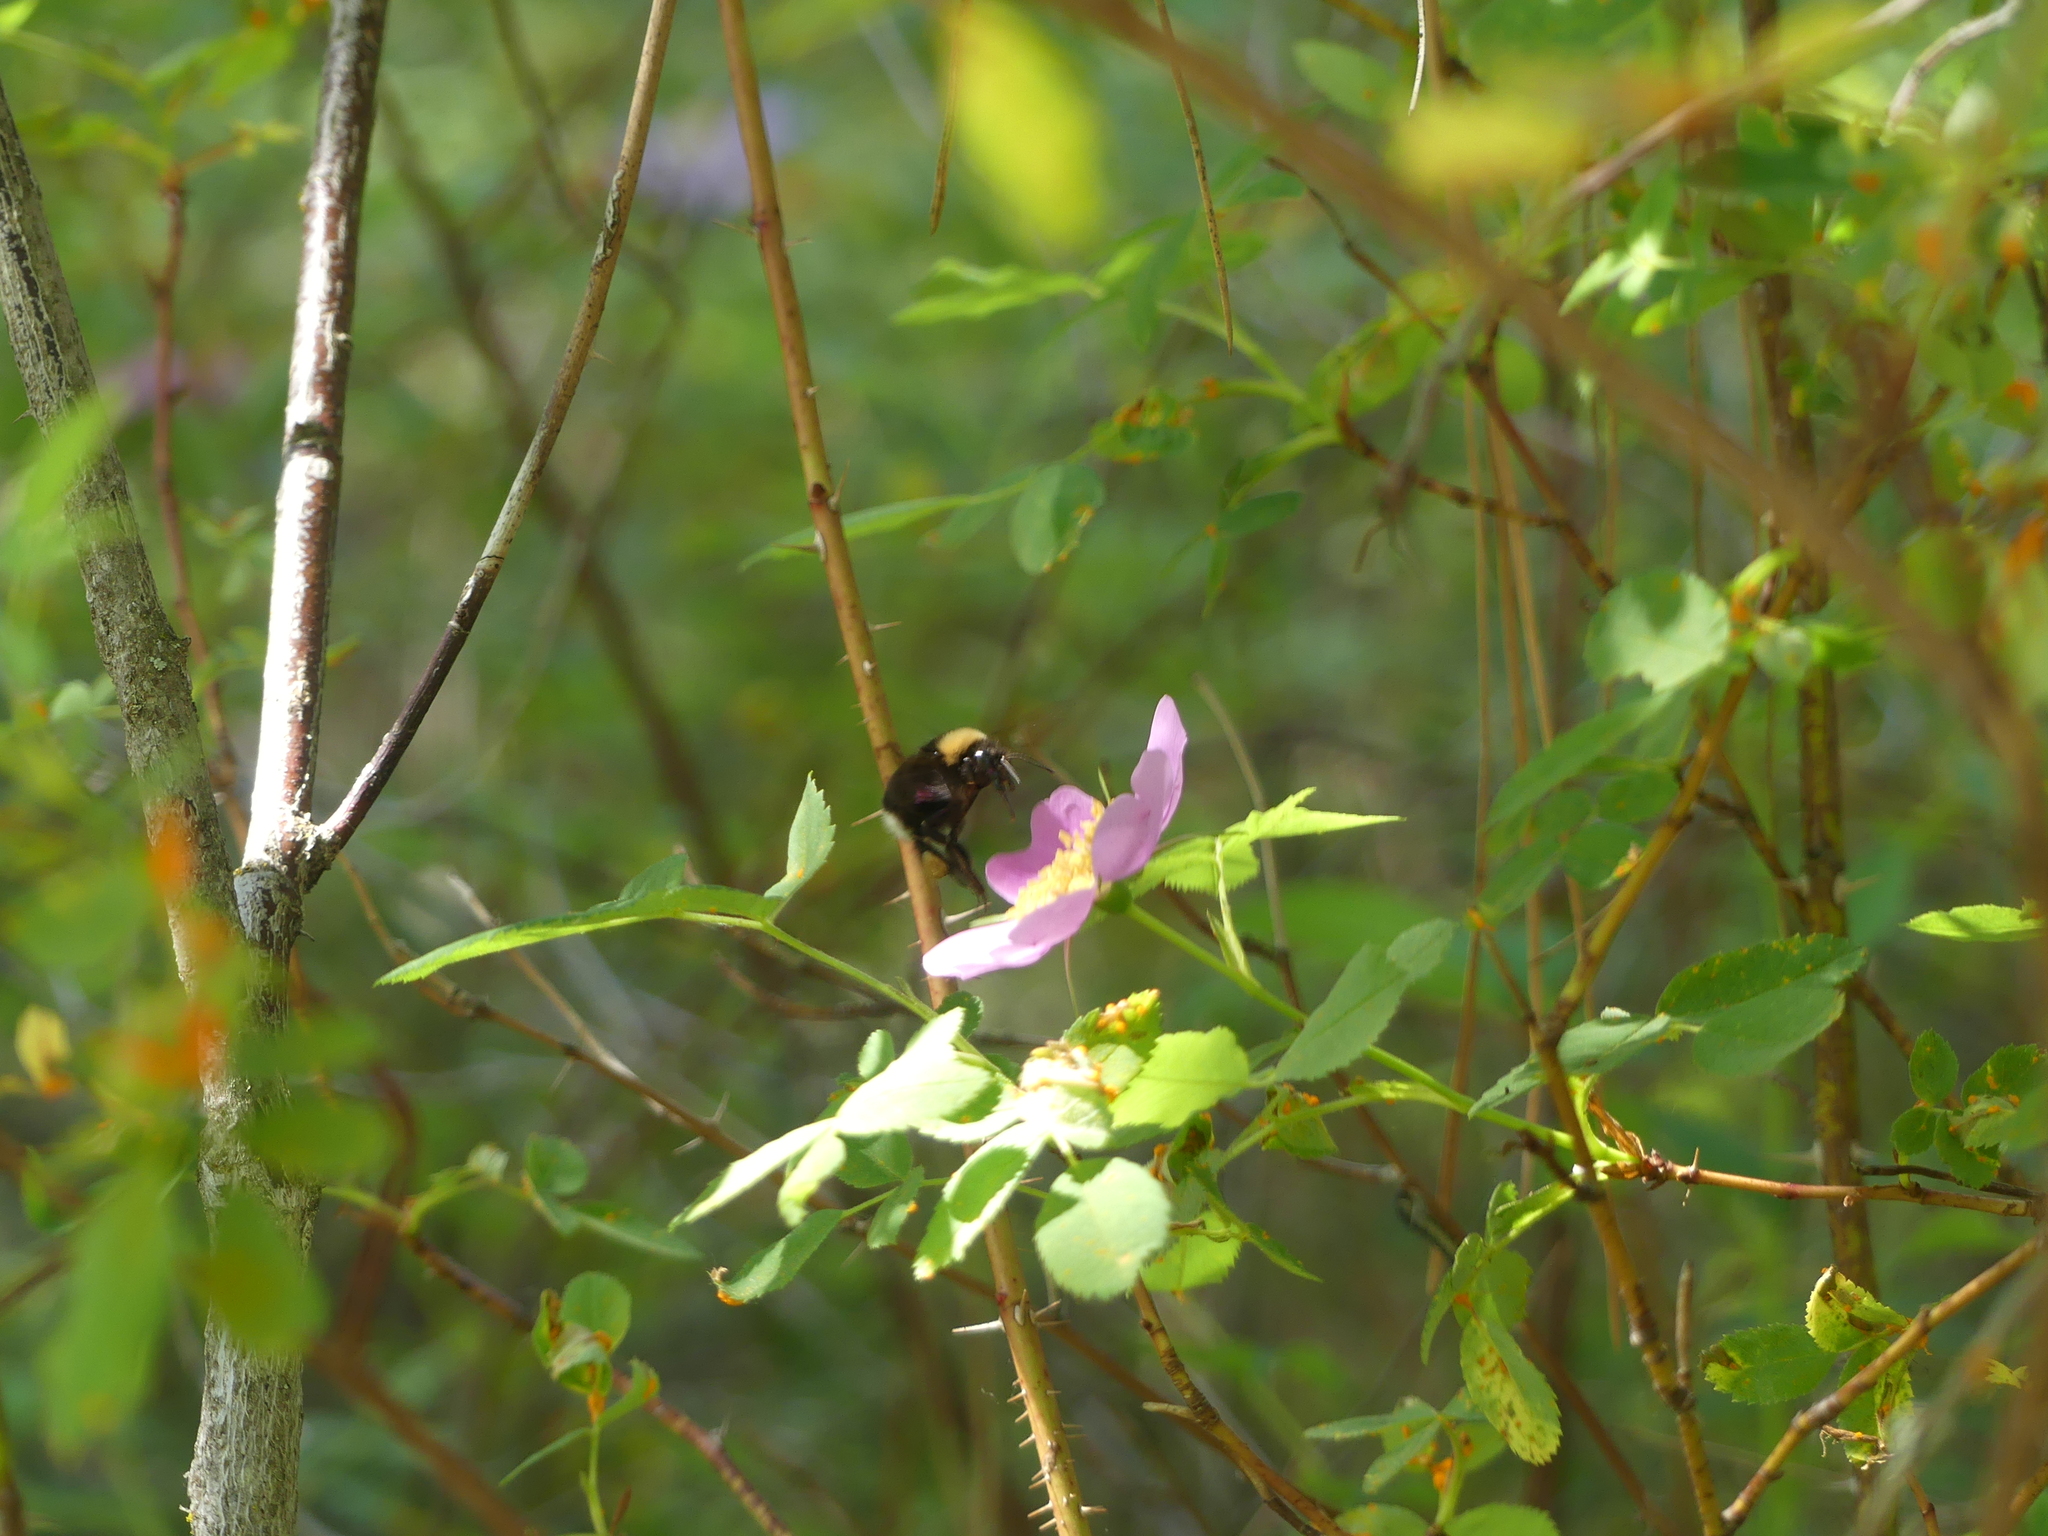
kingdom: Animalia
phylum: Arthropoda
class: Insecta
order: Hymenoptera
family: Apidae
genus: Bombus
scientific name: Bombus occidentalis
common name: Western bumble bee
